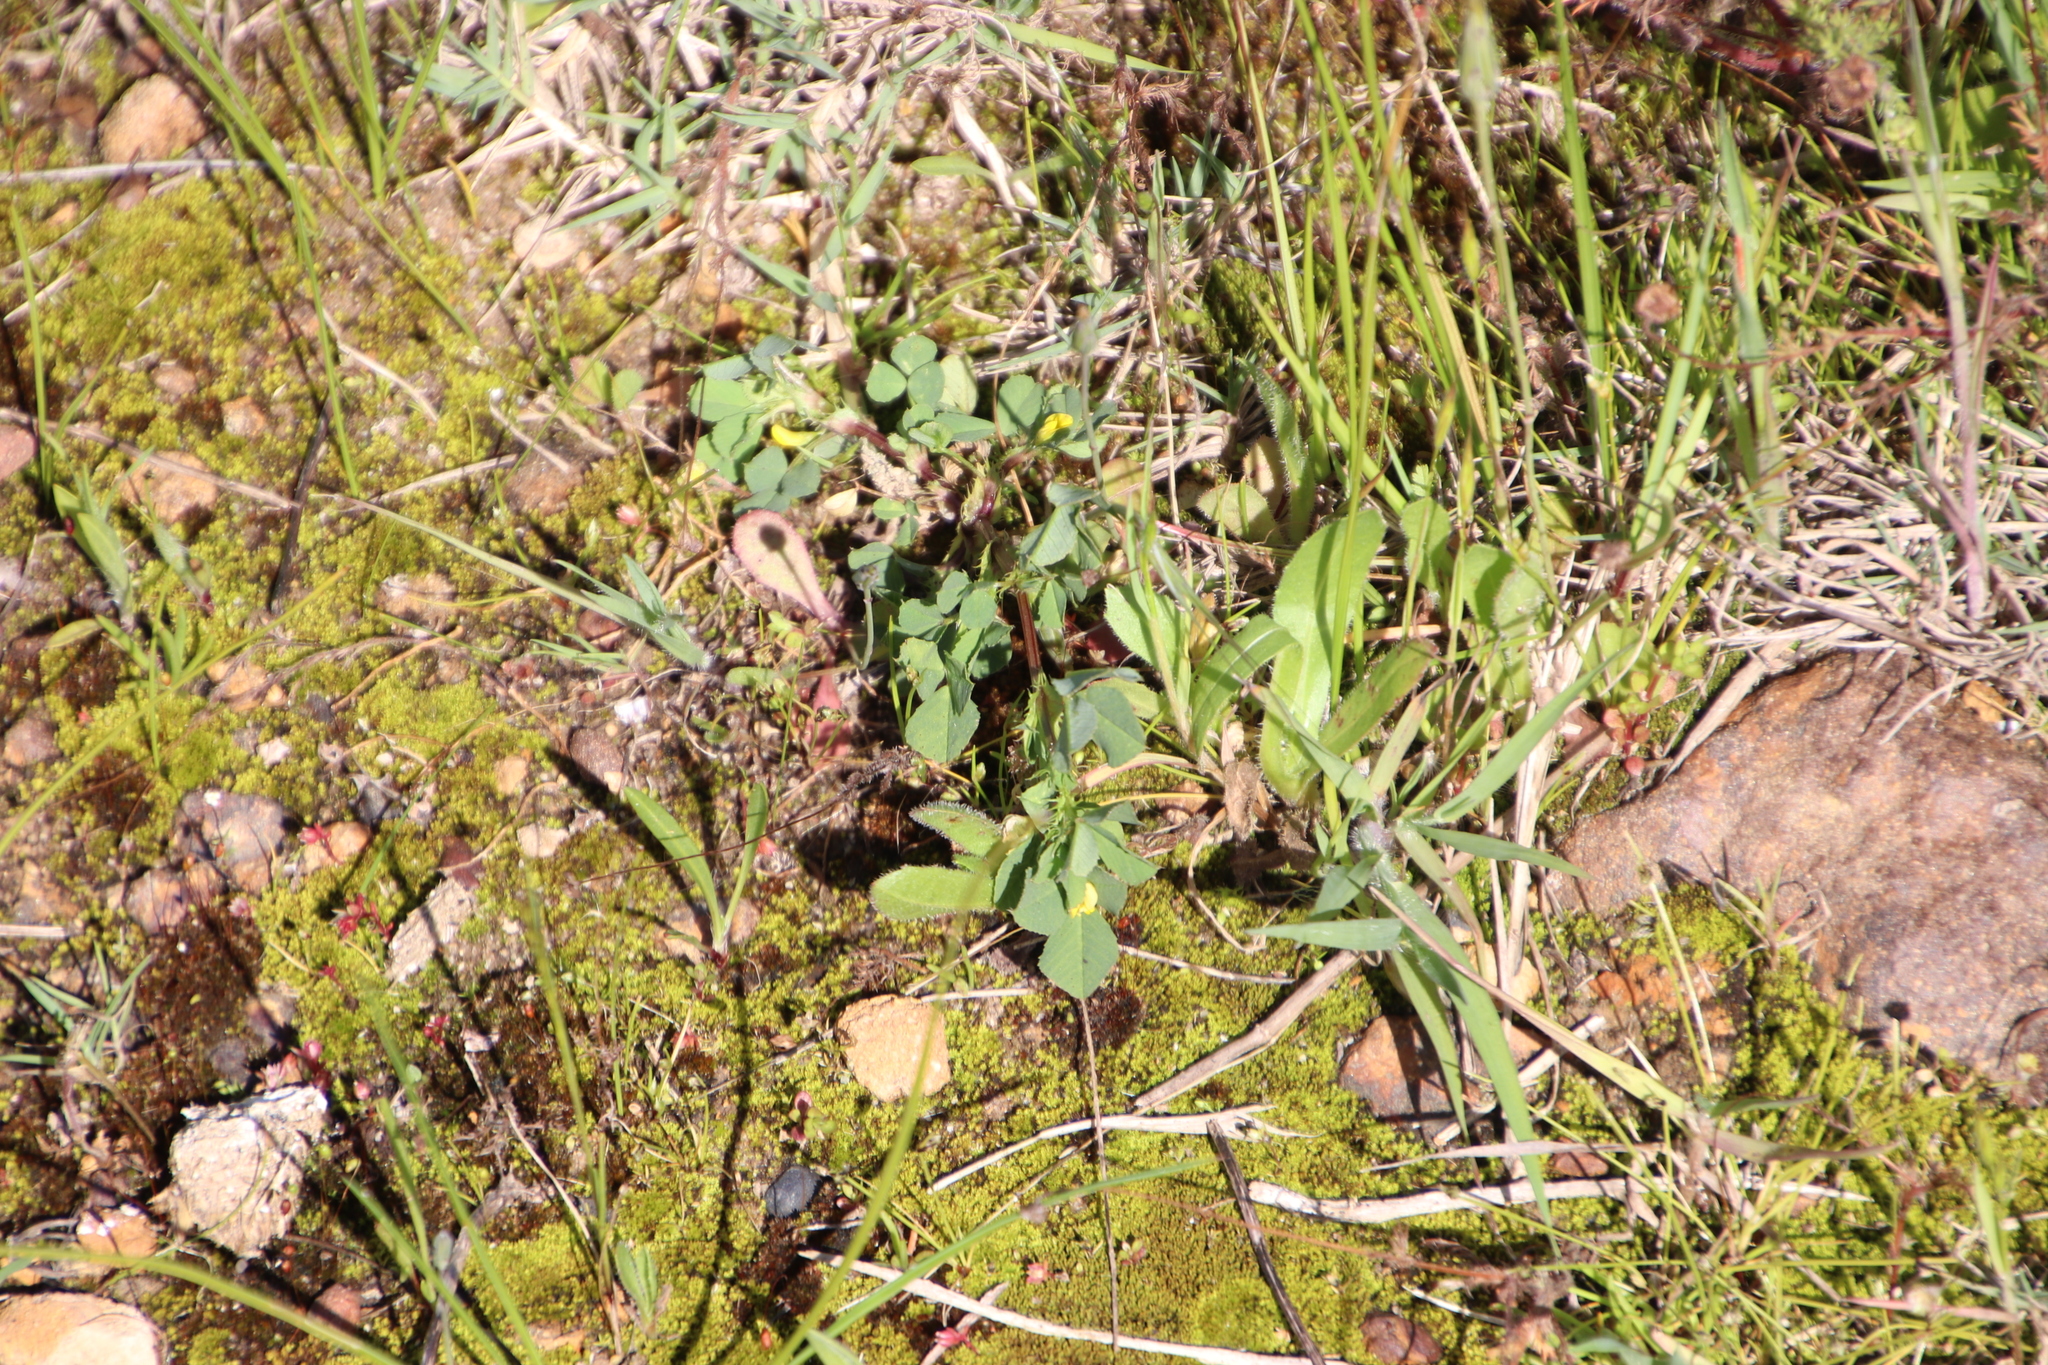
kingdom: Plantae
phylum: Tracheophyta
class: Magnoliopsida
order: Fabales
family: Fabaceae
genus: Medicago
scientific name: Medicago polymorpha
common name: Burclover
